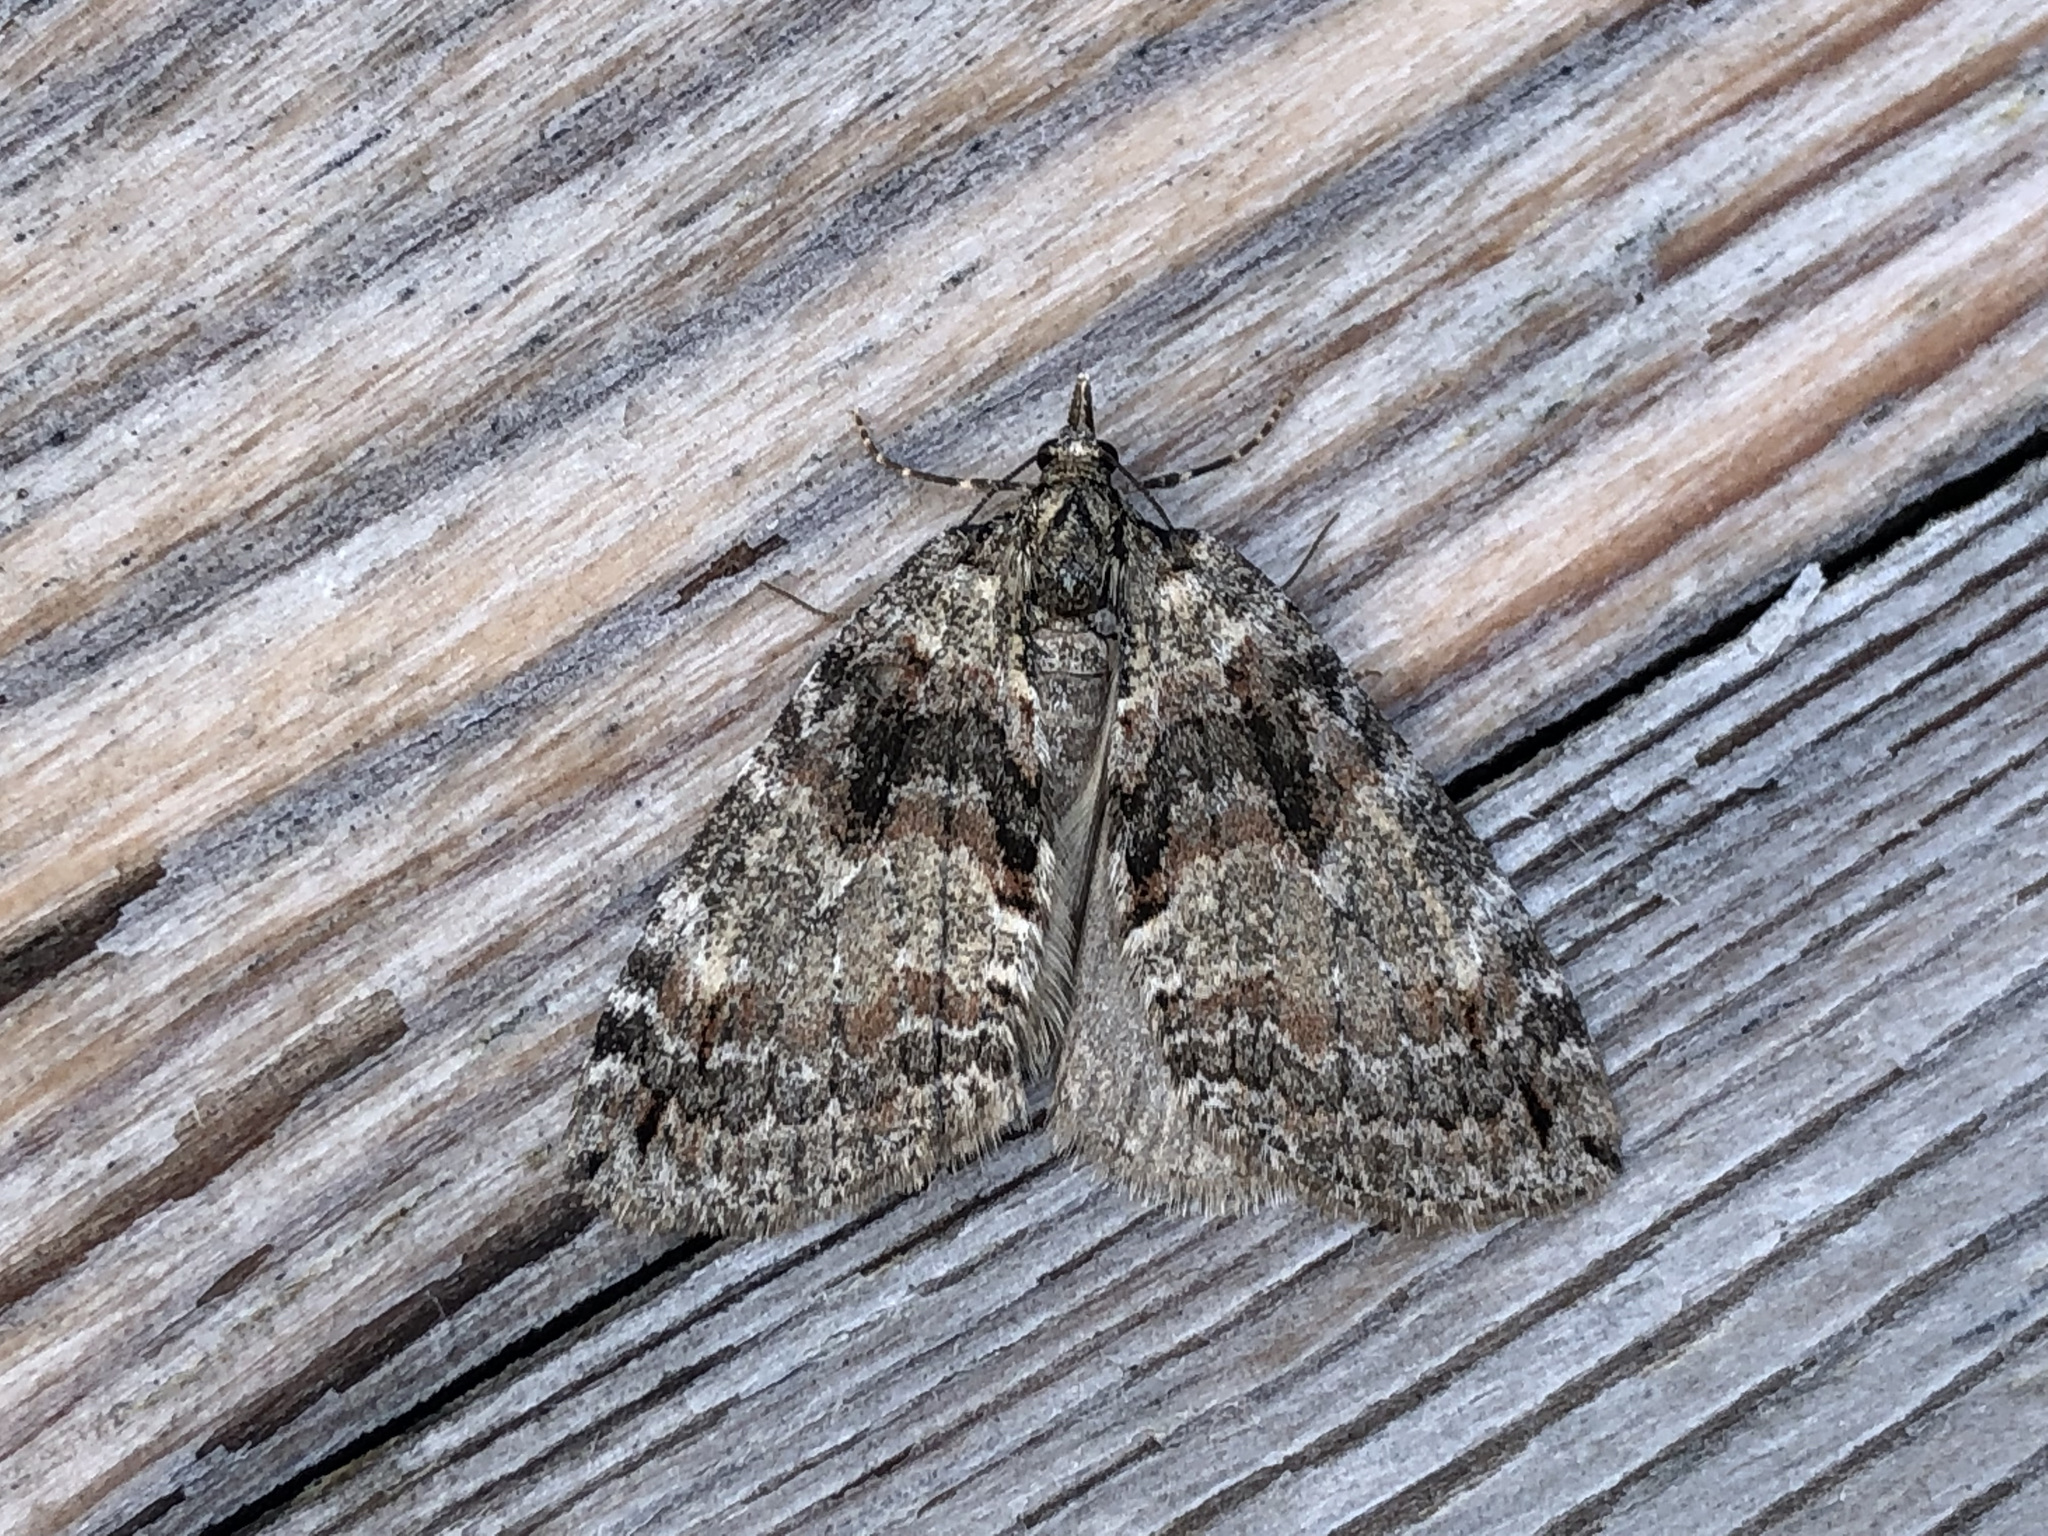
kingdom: Animalia
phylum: Arthropoda
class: Insecta
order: Lepidoptera
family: Geometridae
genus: Hydriomena
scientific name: Hydriomena ruberata
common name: Ruddy highflyer
